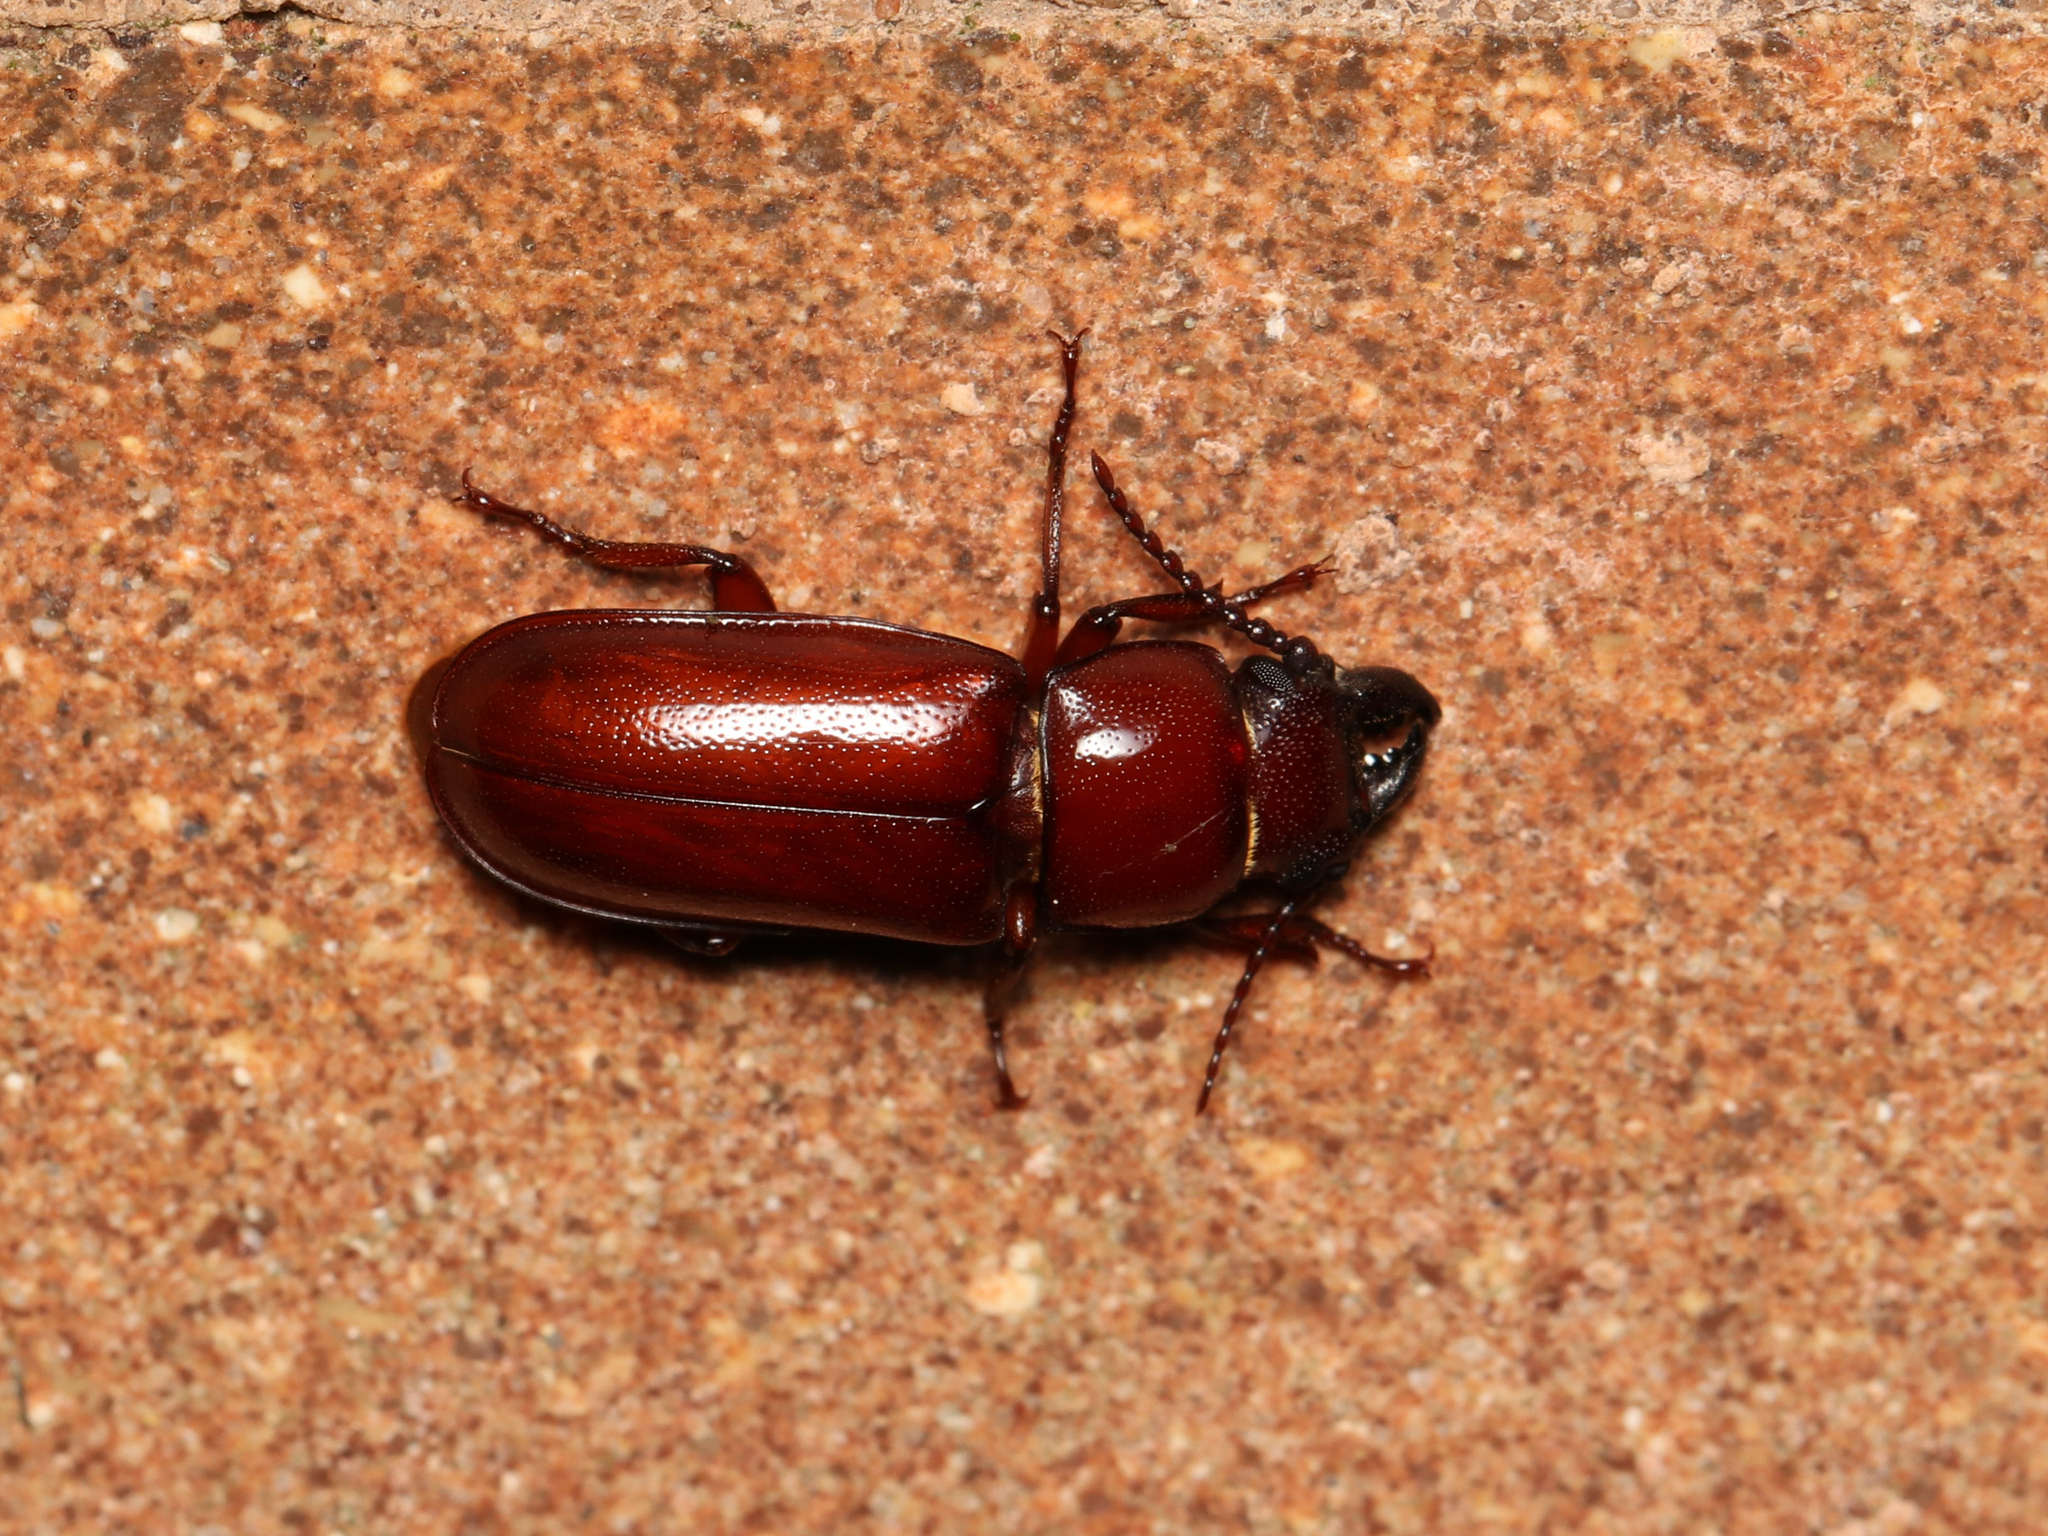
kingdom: Animalia
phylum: Arthropoda
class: Insecta
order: Coleoptera
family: Cerambycidae
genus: Neandra
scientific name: Neandra brunnea
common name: Pole borer
